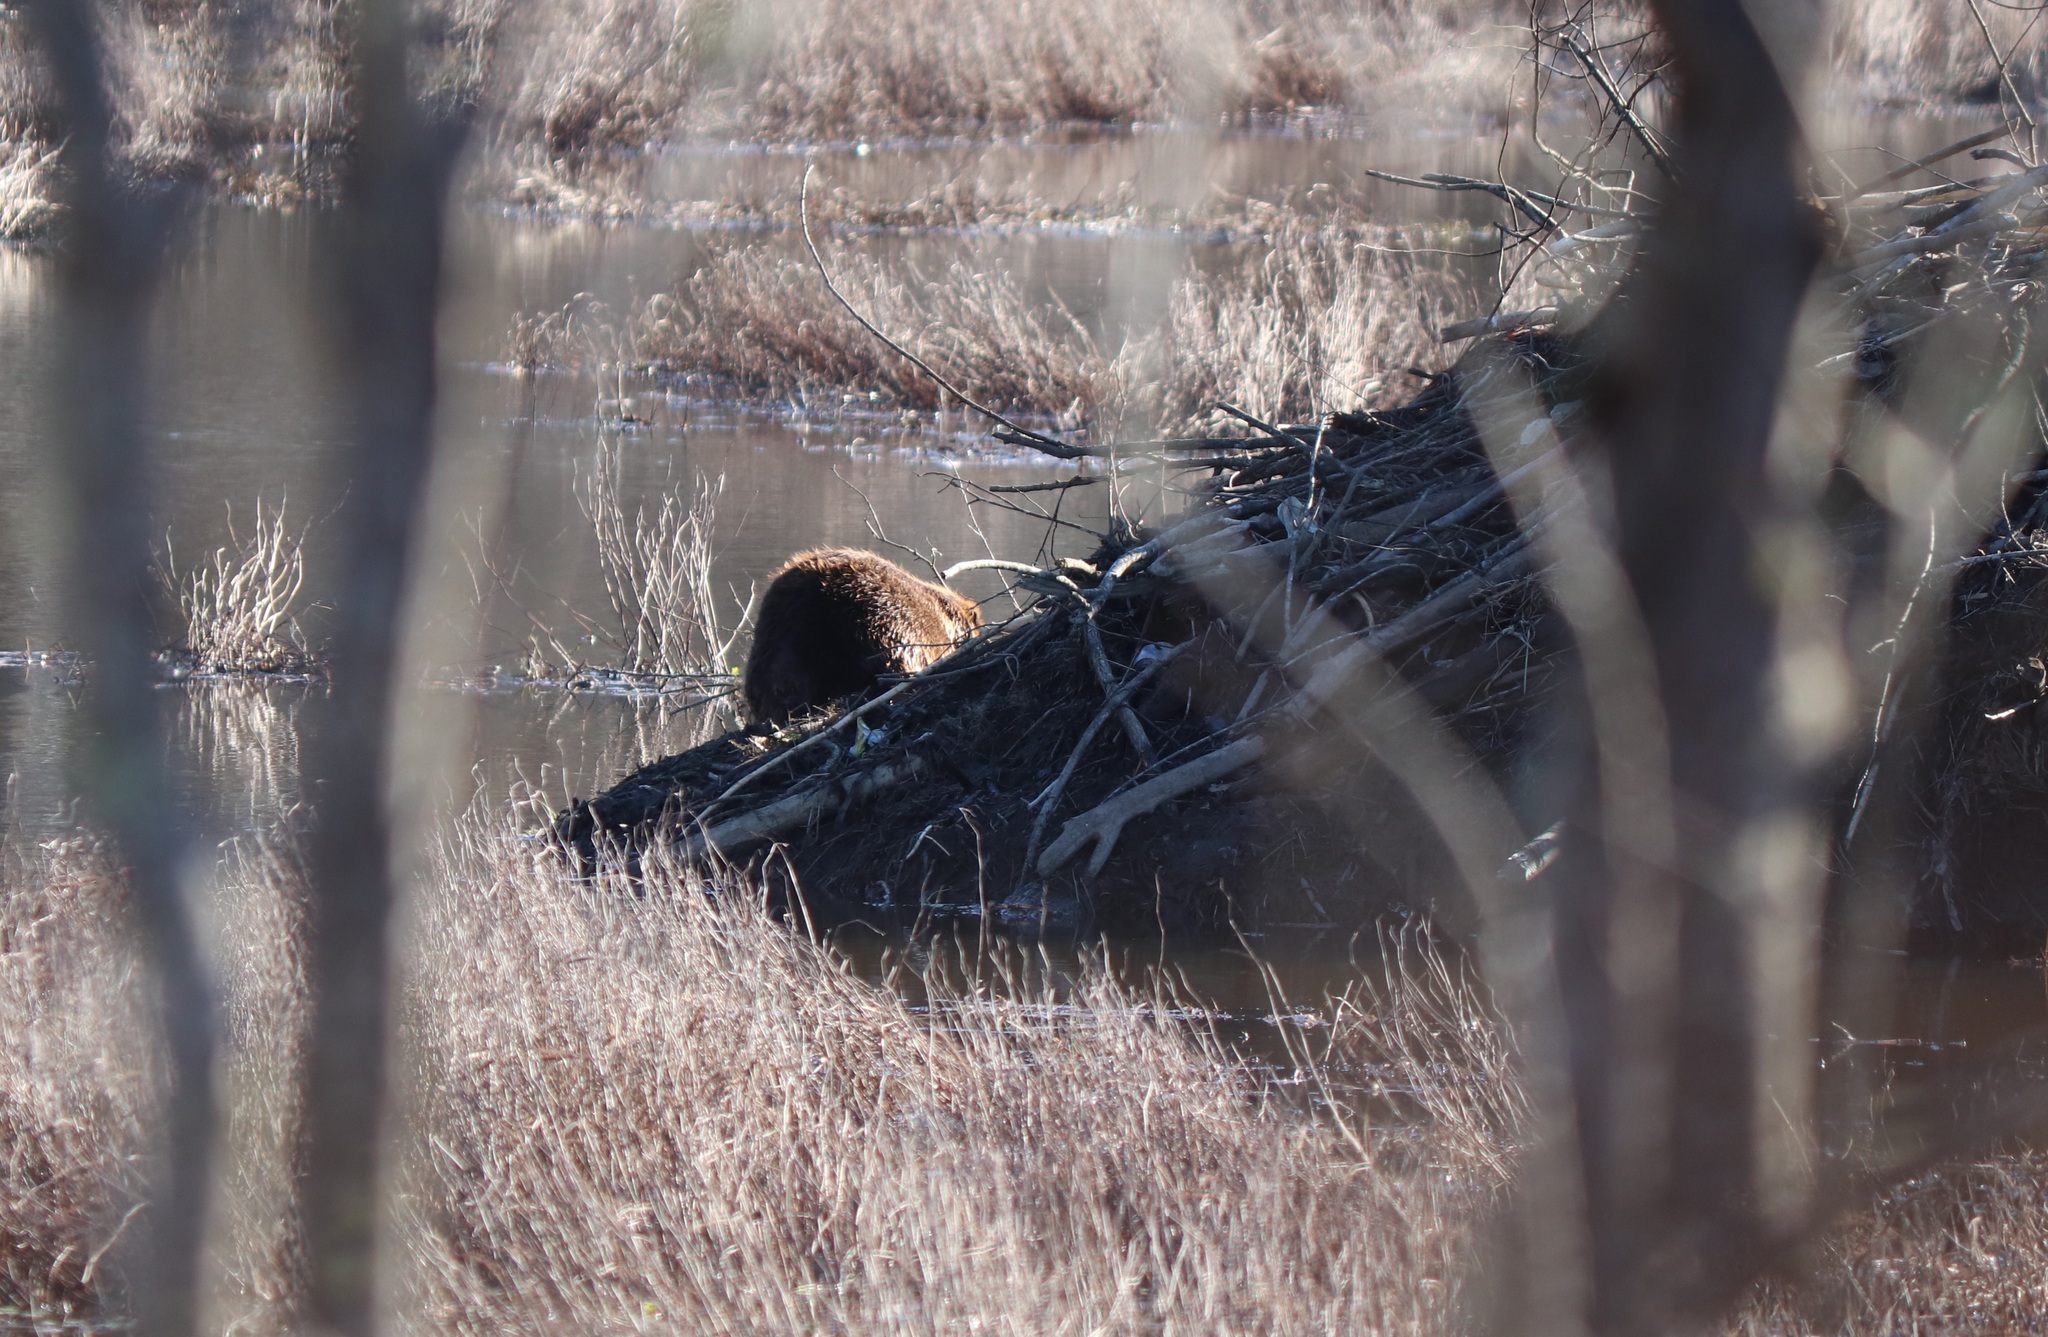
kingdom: Animalia
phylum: Chordata
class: Mammalia
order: Rodentia
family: Castoridae
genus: Castor
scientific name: Castor canadensis
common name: American beaver
